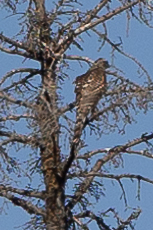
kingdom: Animalia
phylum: Chordata
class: Aves
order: Accipitriformes
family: Accipitridae
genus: Accipiter
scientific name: Accipiter gentilis
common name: Northern goshawk
